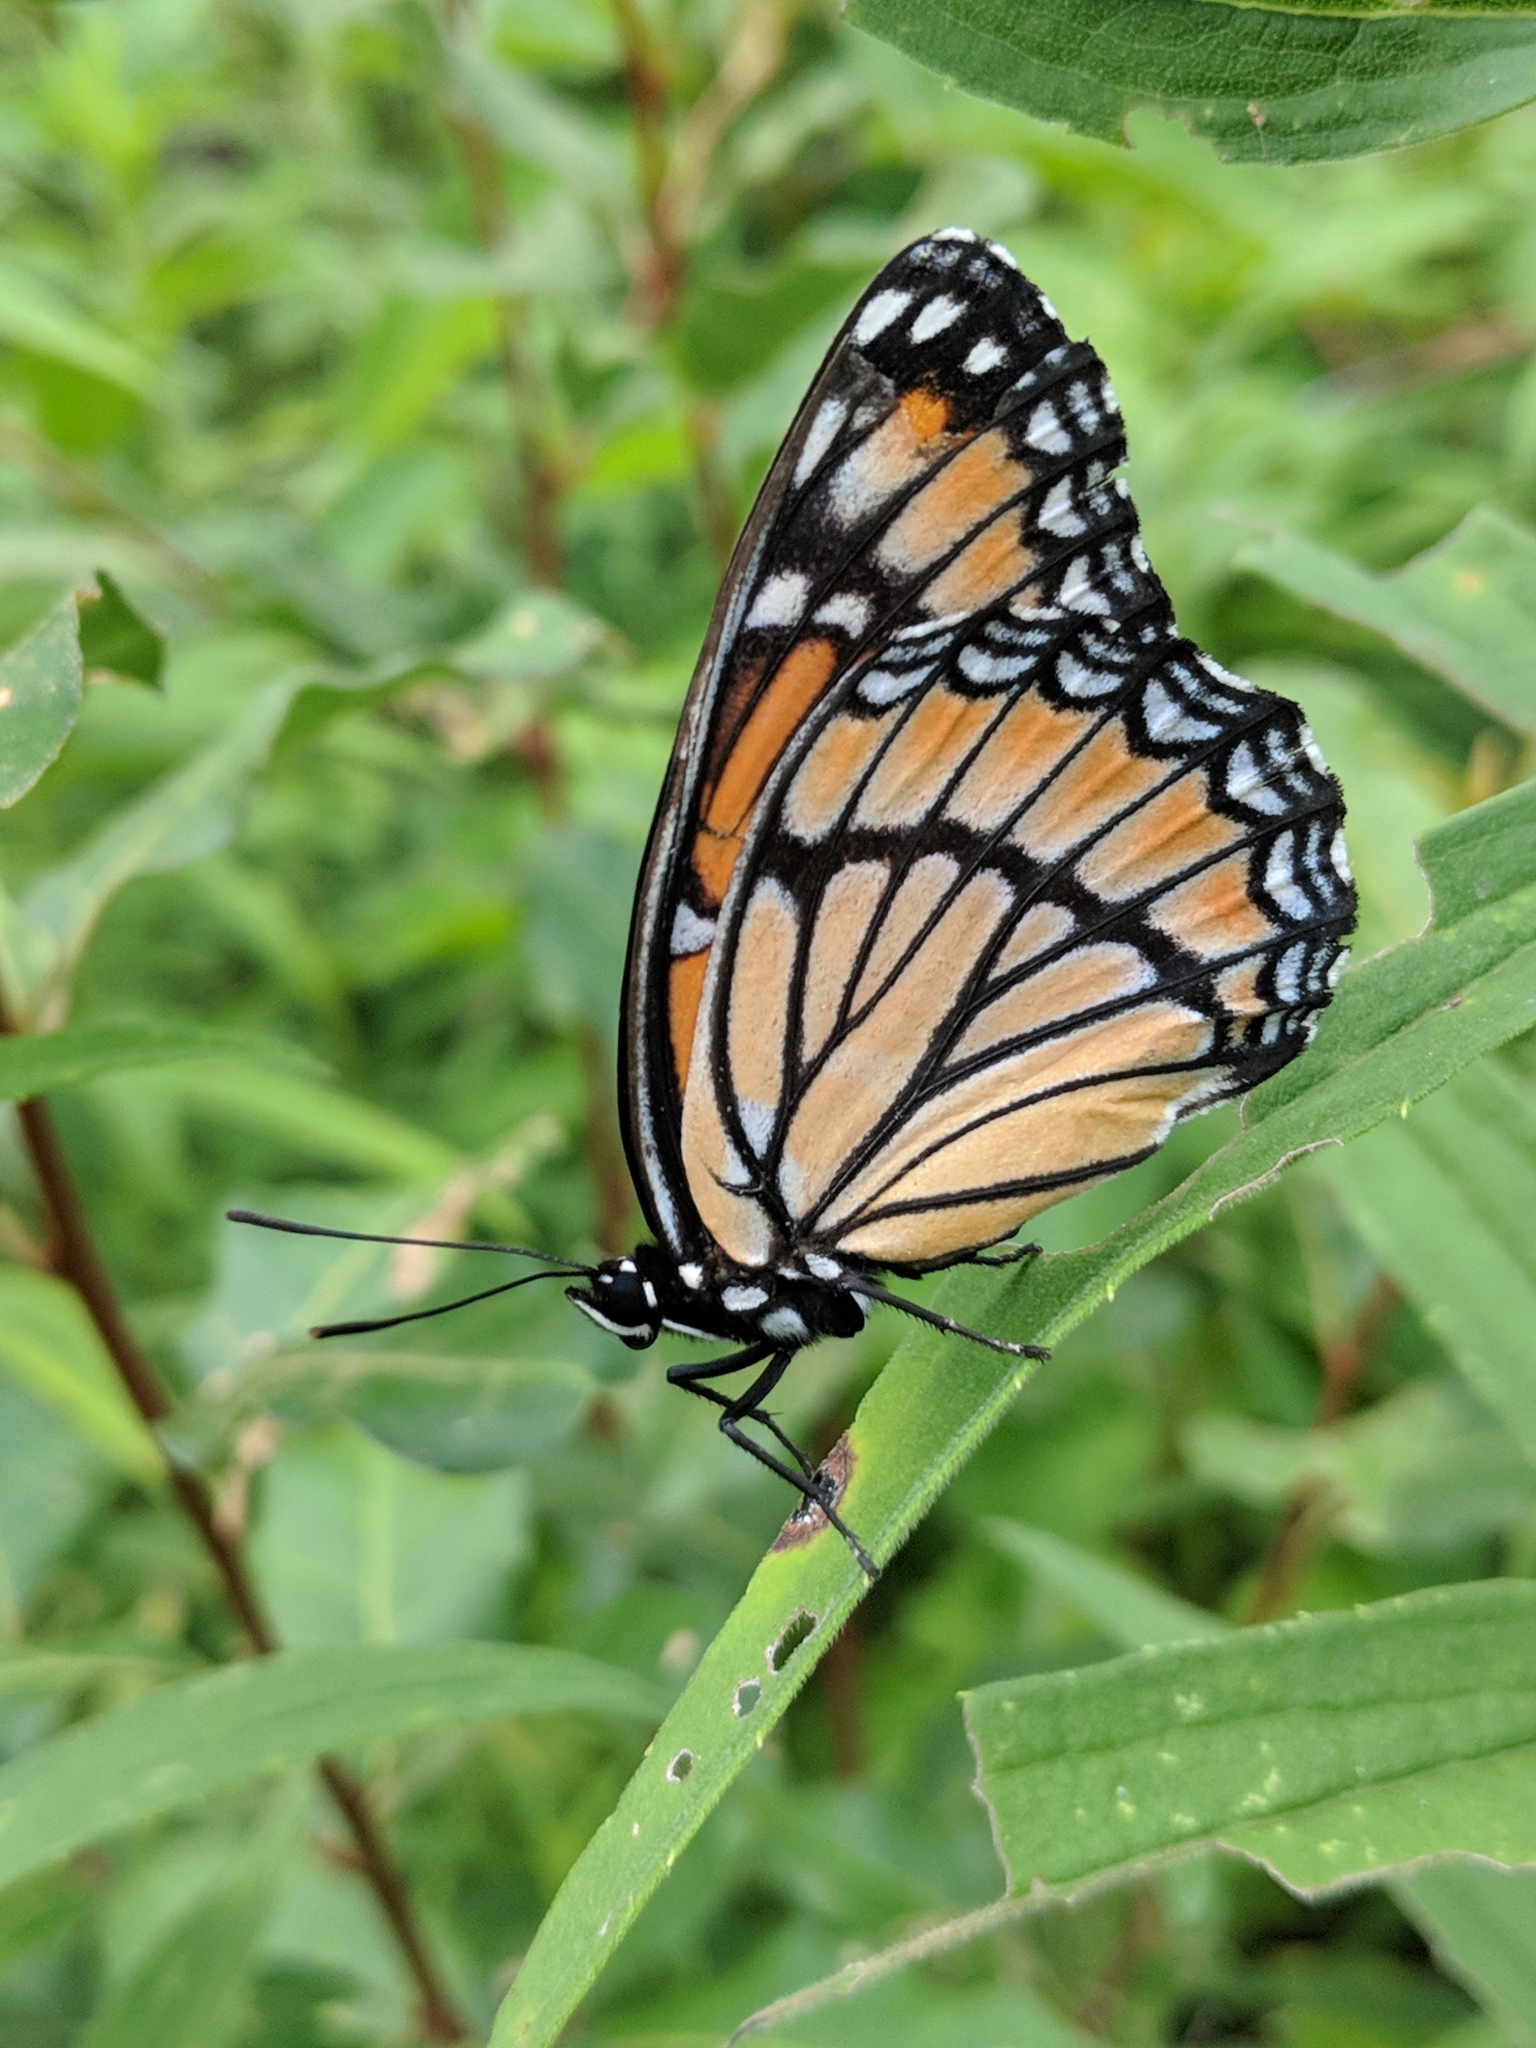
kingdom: Animalia
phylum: Arthropoda
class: Insecta
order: Lepidoptera
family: Nymphalidae
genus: Limenitis
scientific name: Limenitis archippus
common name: Viceroy
